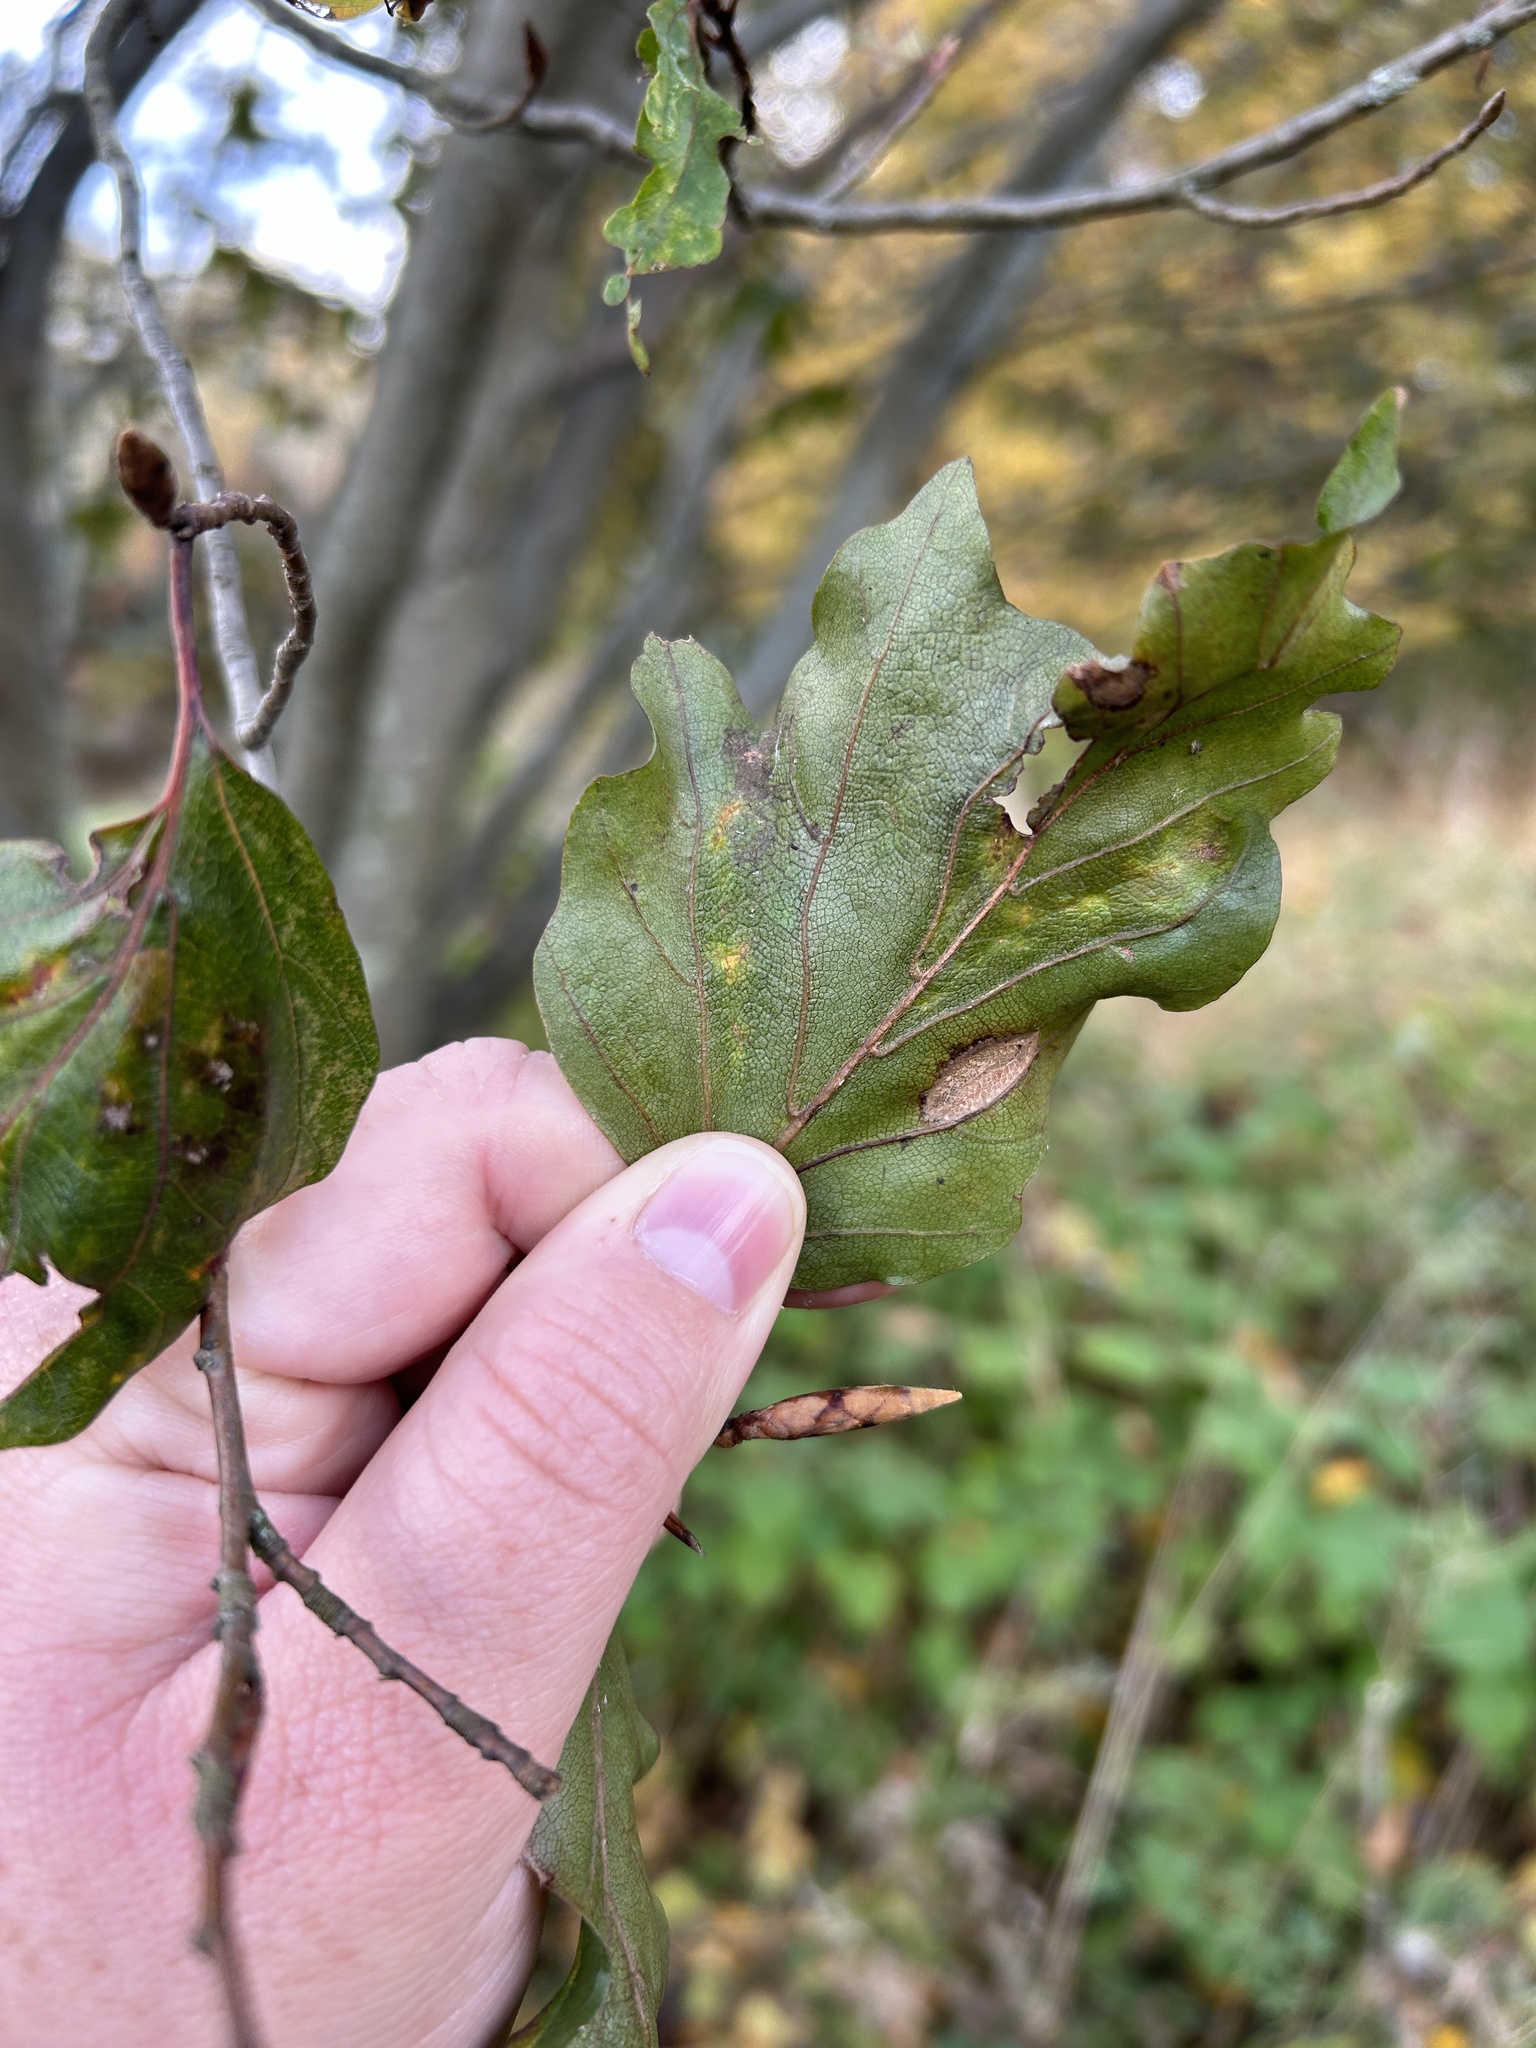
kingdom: Animalia
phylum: Nematoda
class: Chromadorea
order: Rhabditida
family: Anguinidae
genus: Litylenchus
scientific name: Litylenchus crenatae
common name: Beech leaf disease
